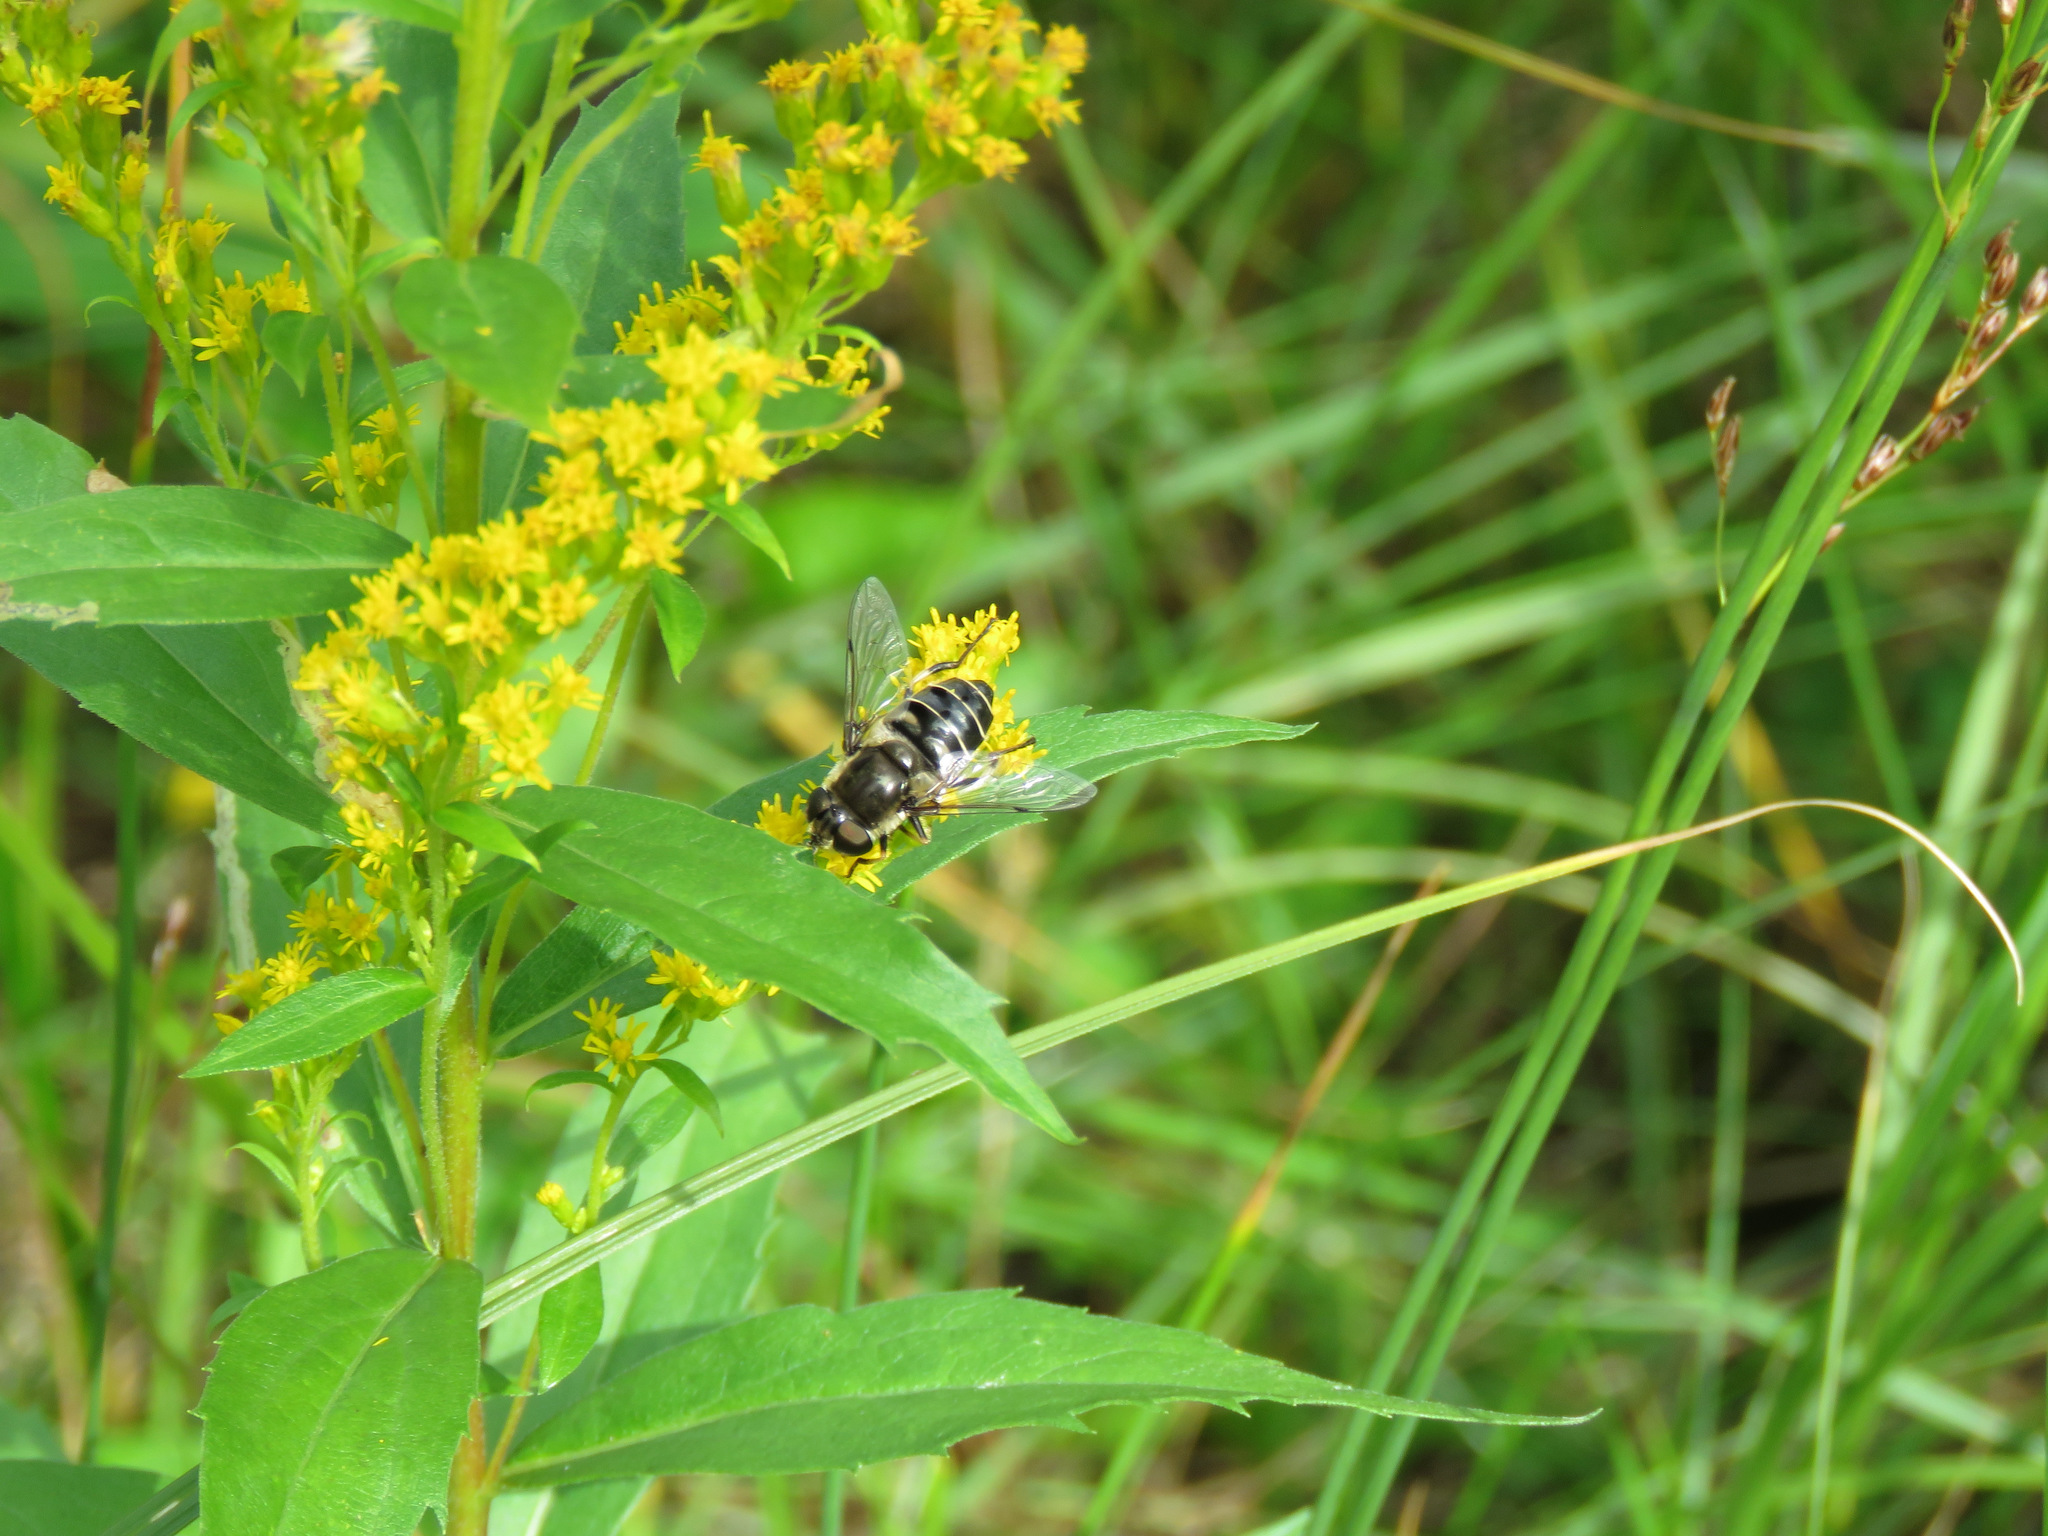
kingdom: Animalia
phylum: Arthropoda
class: Insecta
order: Diptera
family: Syrphidae
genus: Eristalis
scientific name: Eristalis dimidiata
